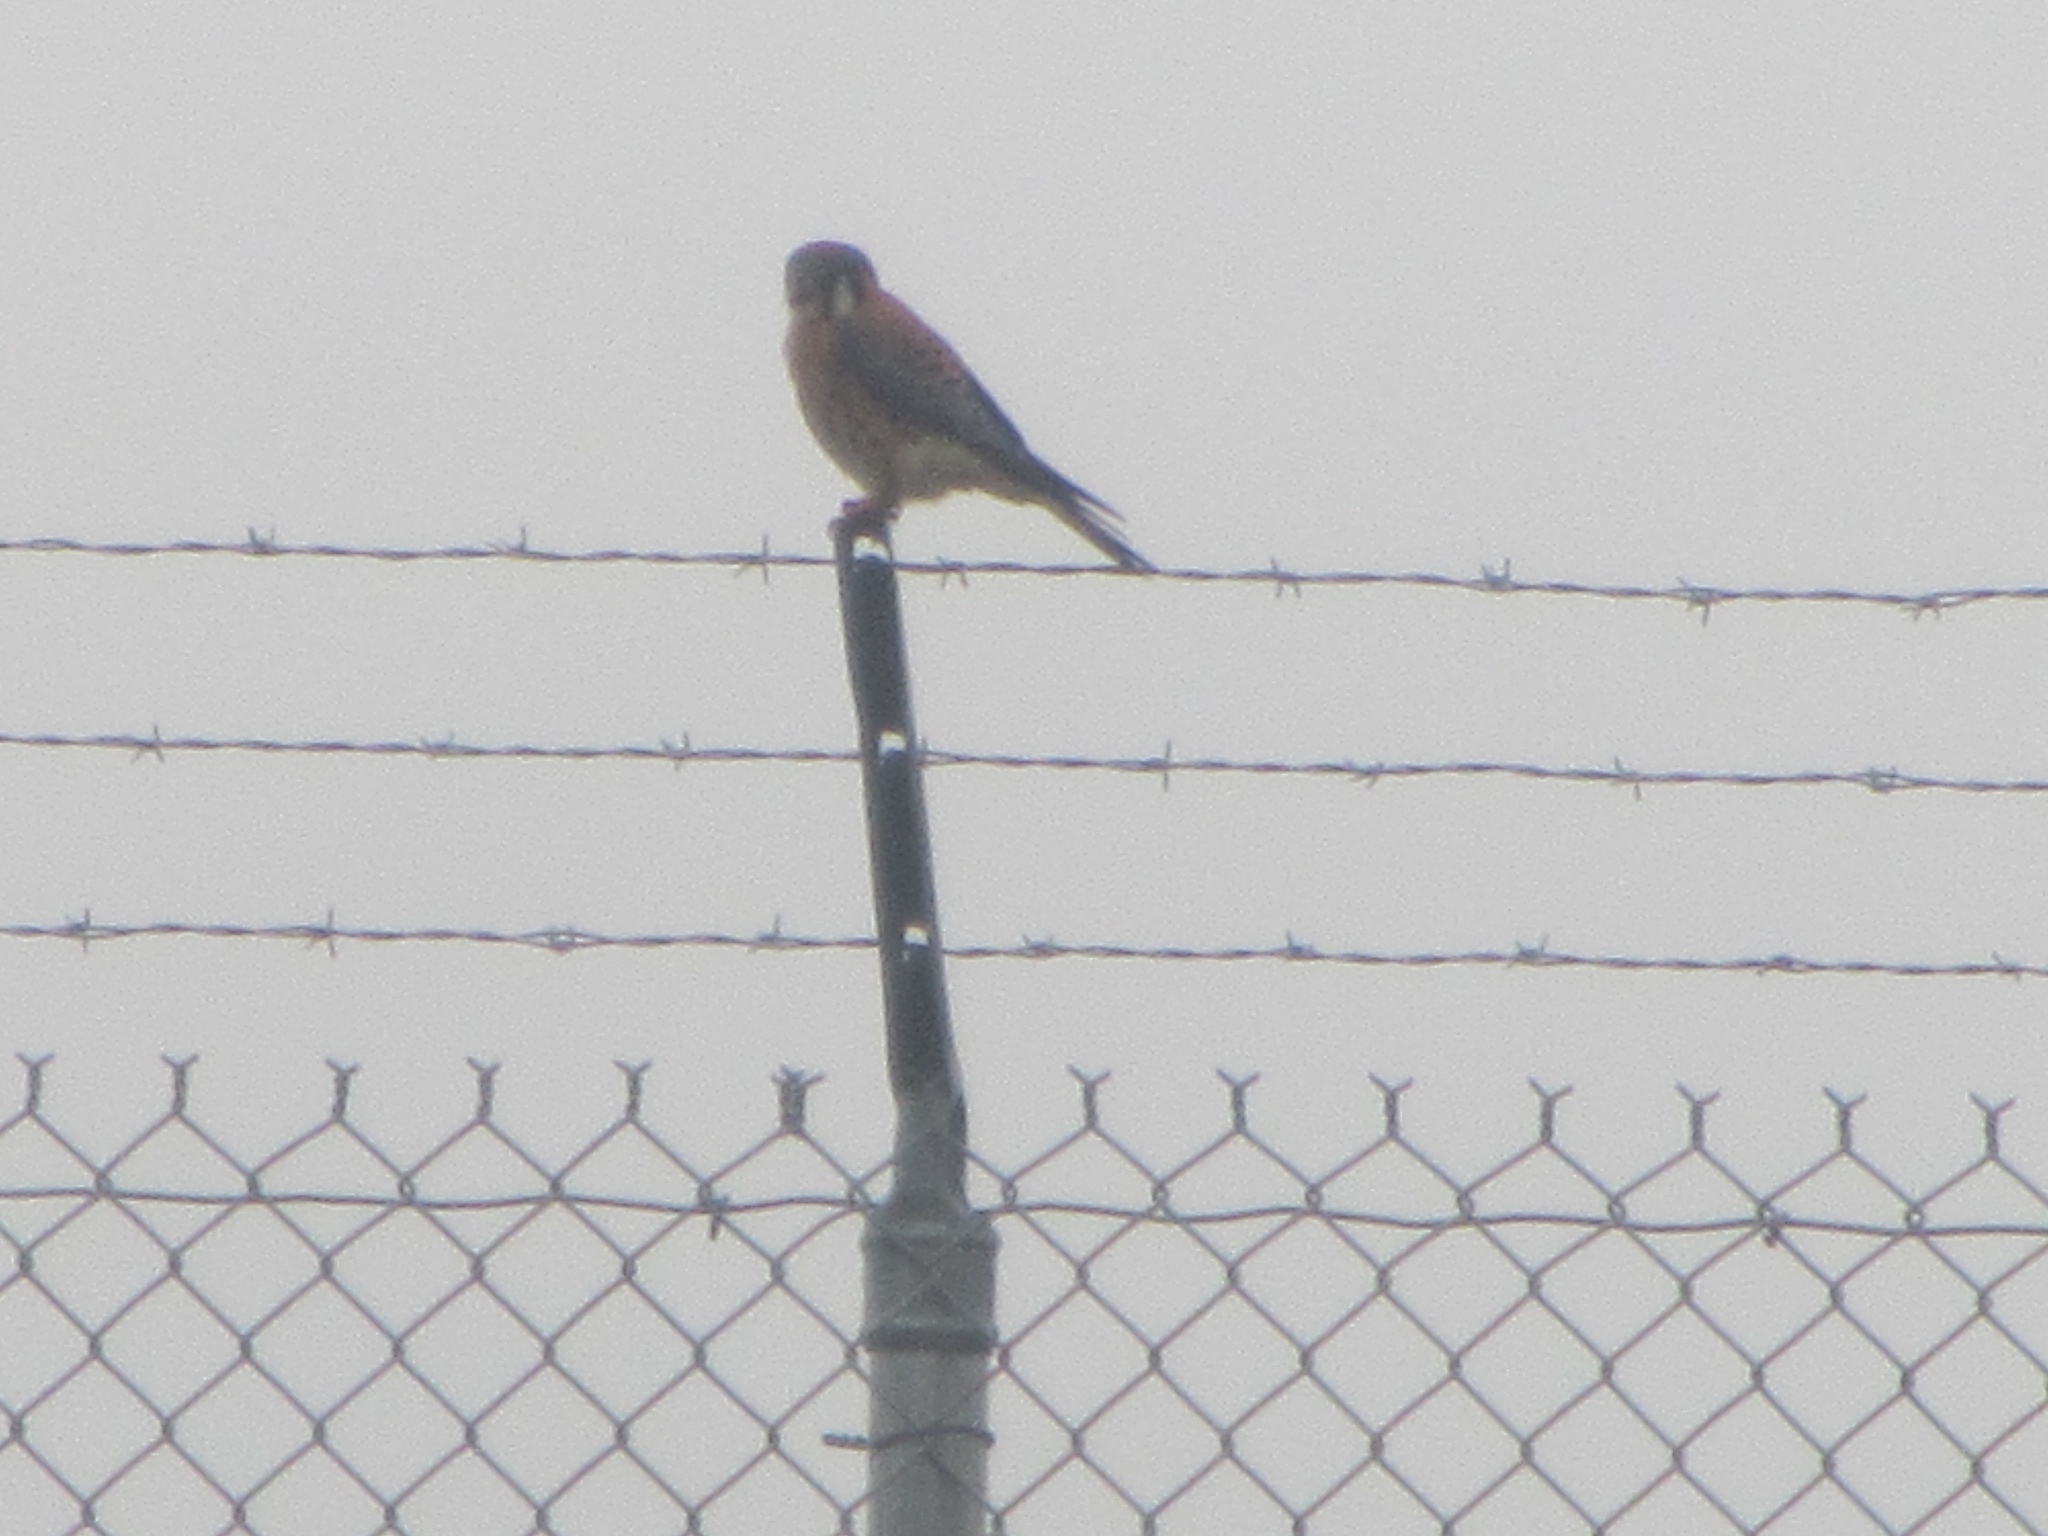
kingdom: Animalia
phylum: Chordata
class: Aves
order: Falconiformes
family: Falconidae
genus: Falco
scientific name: Falco sparverius
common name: American kestrel
